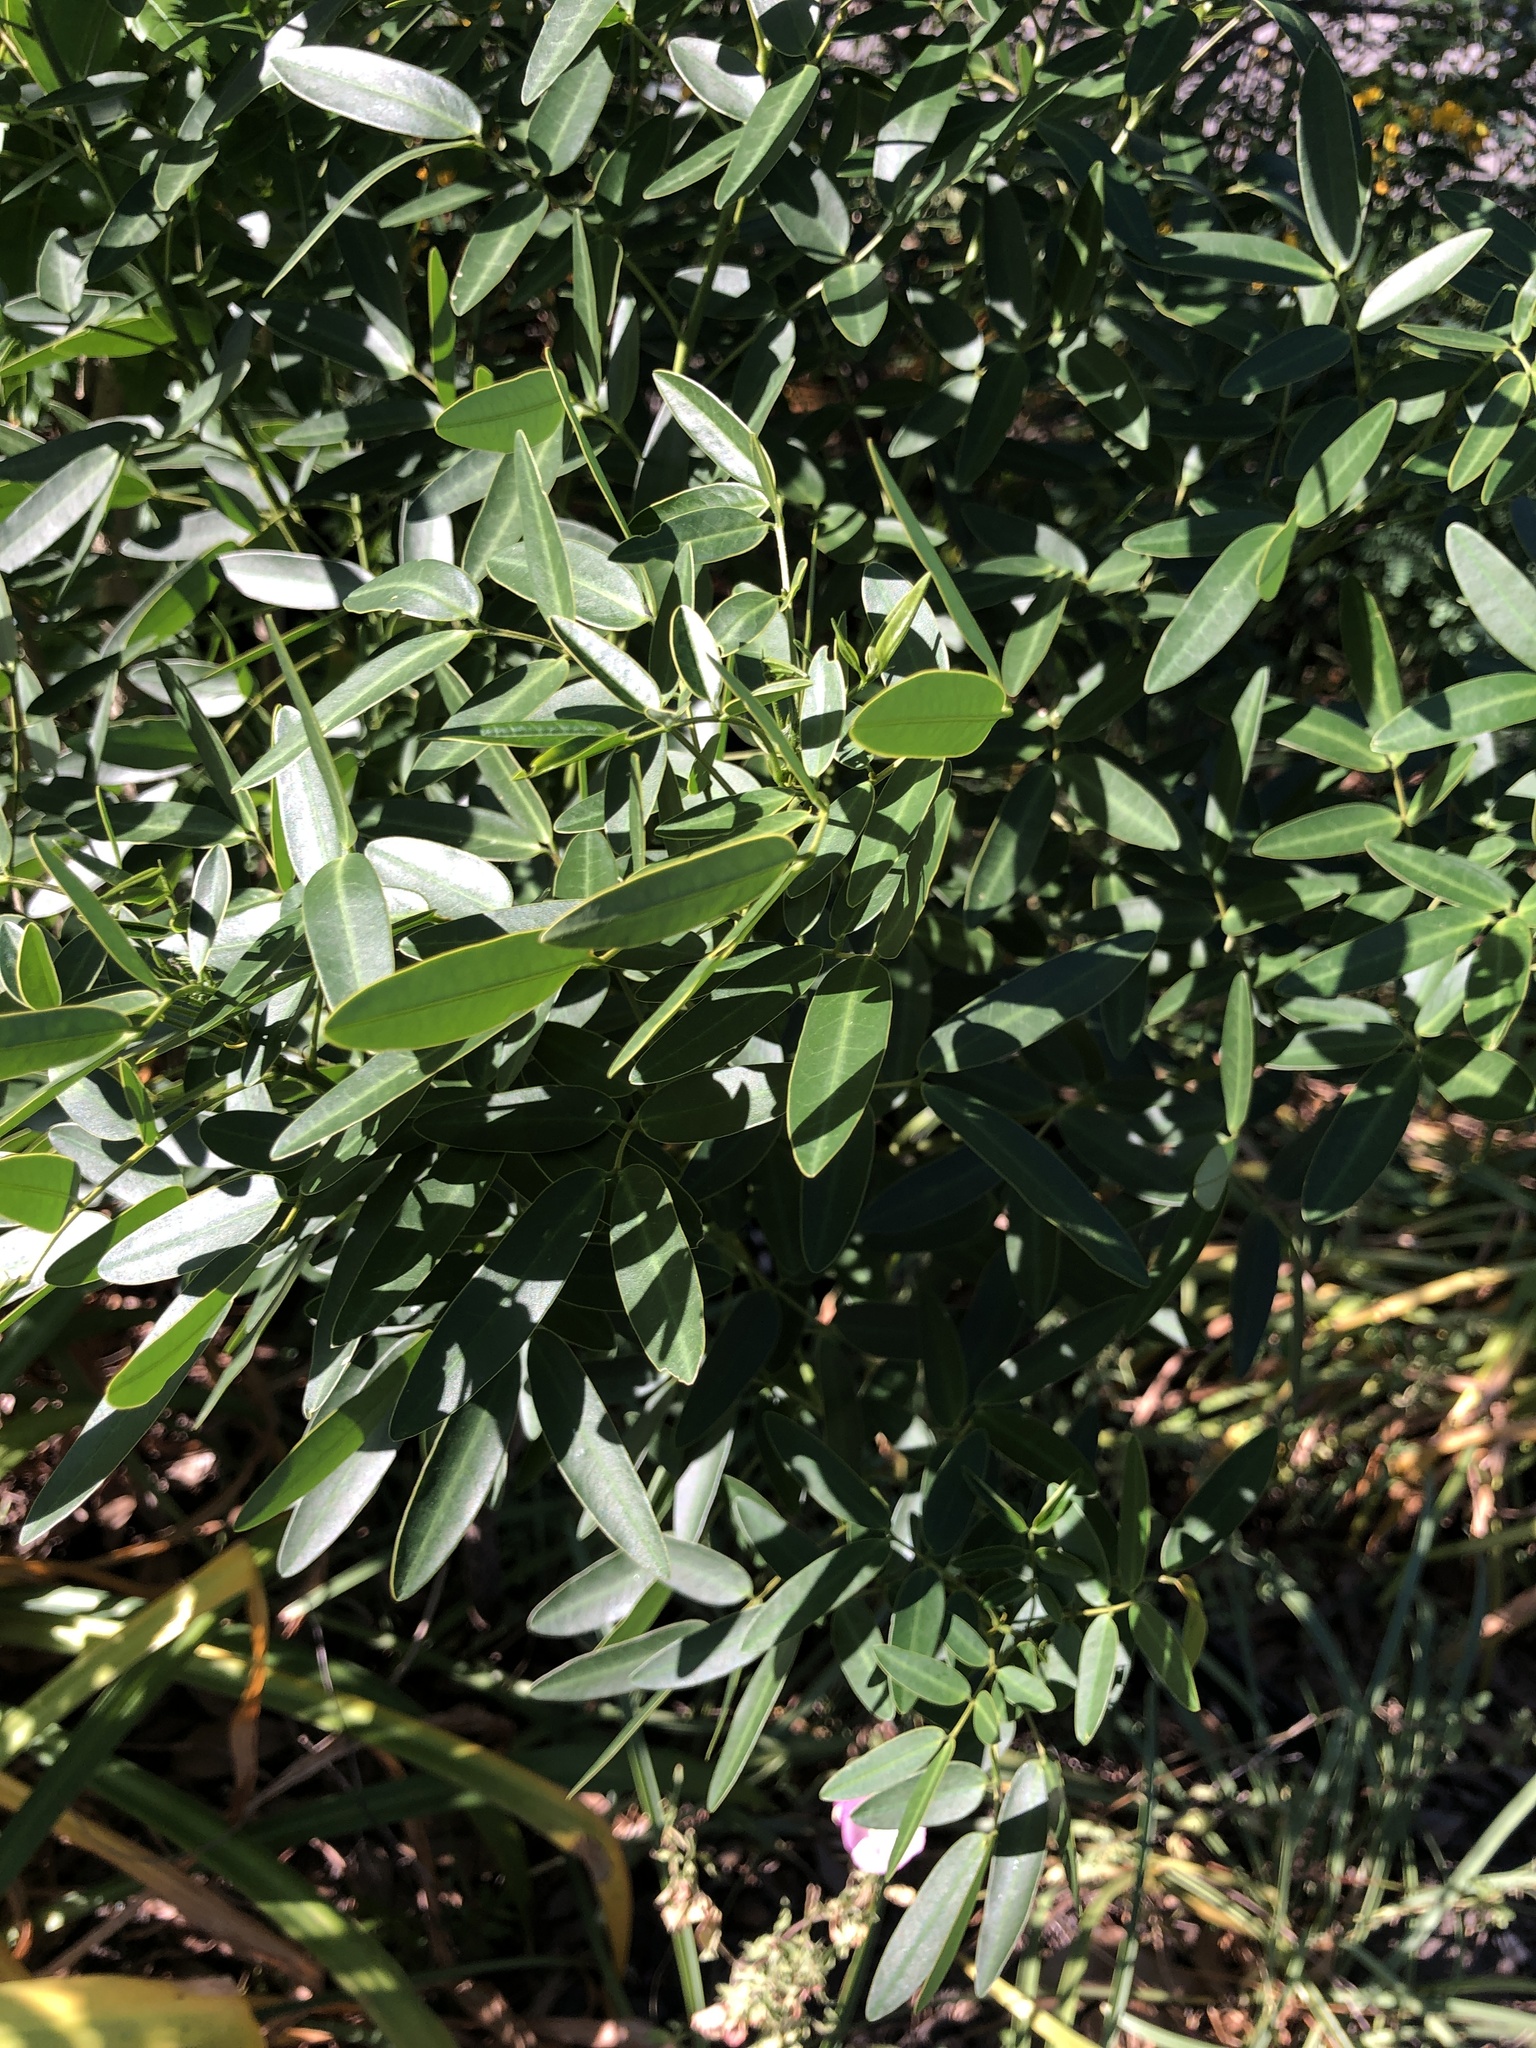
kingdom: Plantae
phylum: Tracheophyta
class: Magnoliopsida
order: Fabales
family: Fabaceae
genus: Senna
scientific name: Senna corymbosa
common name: Argentine senna
